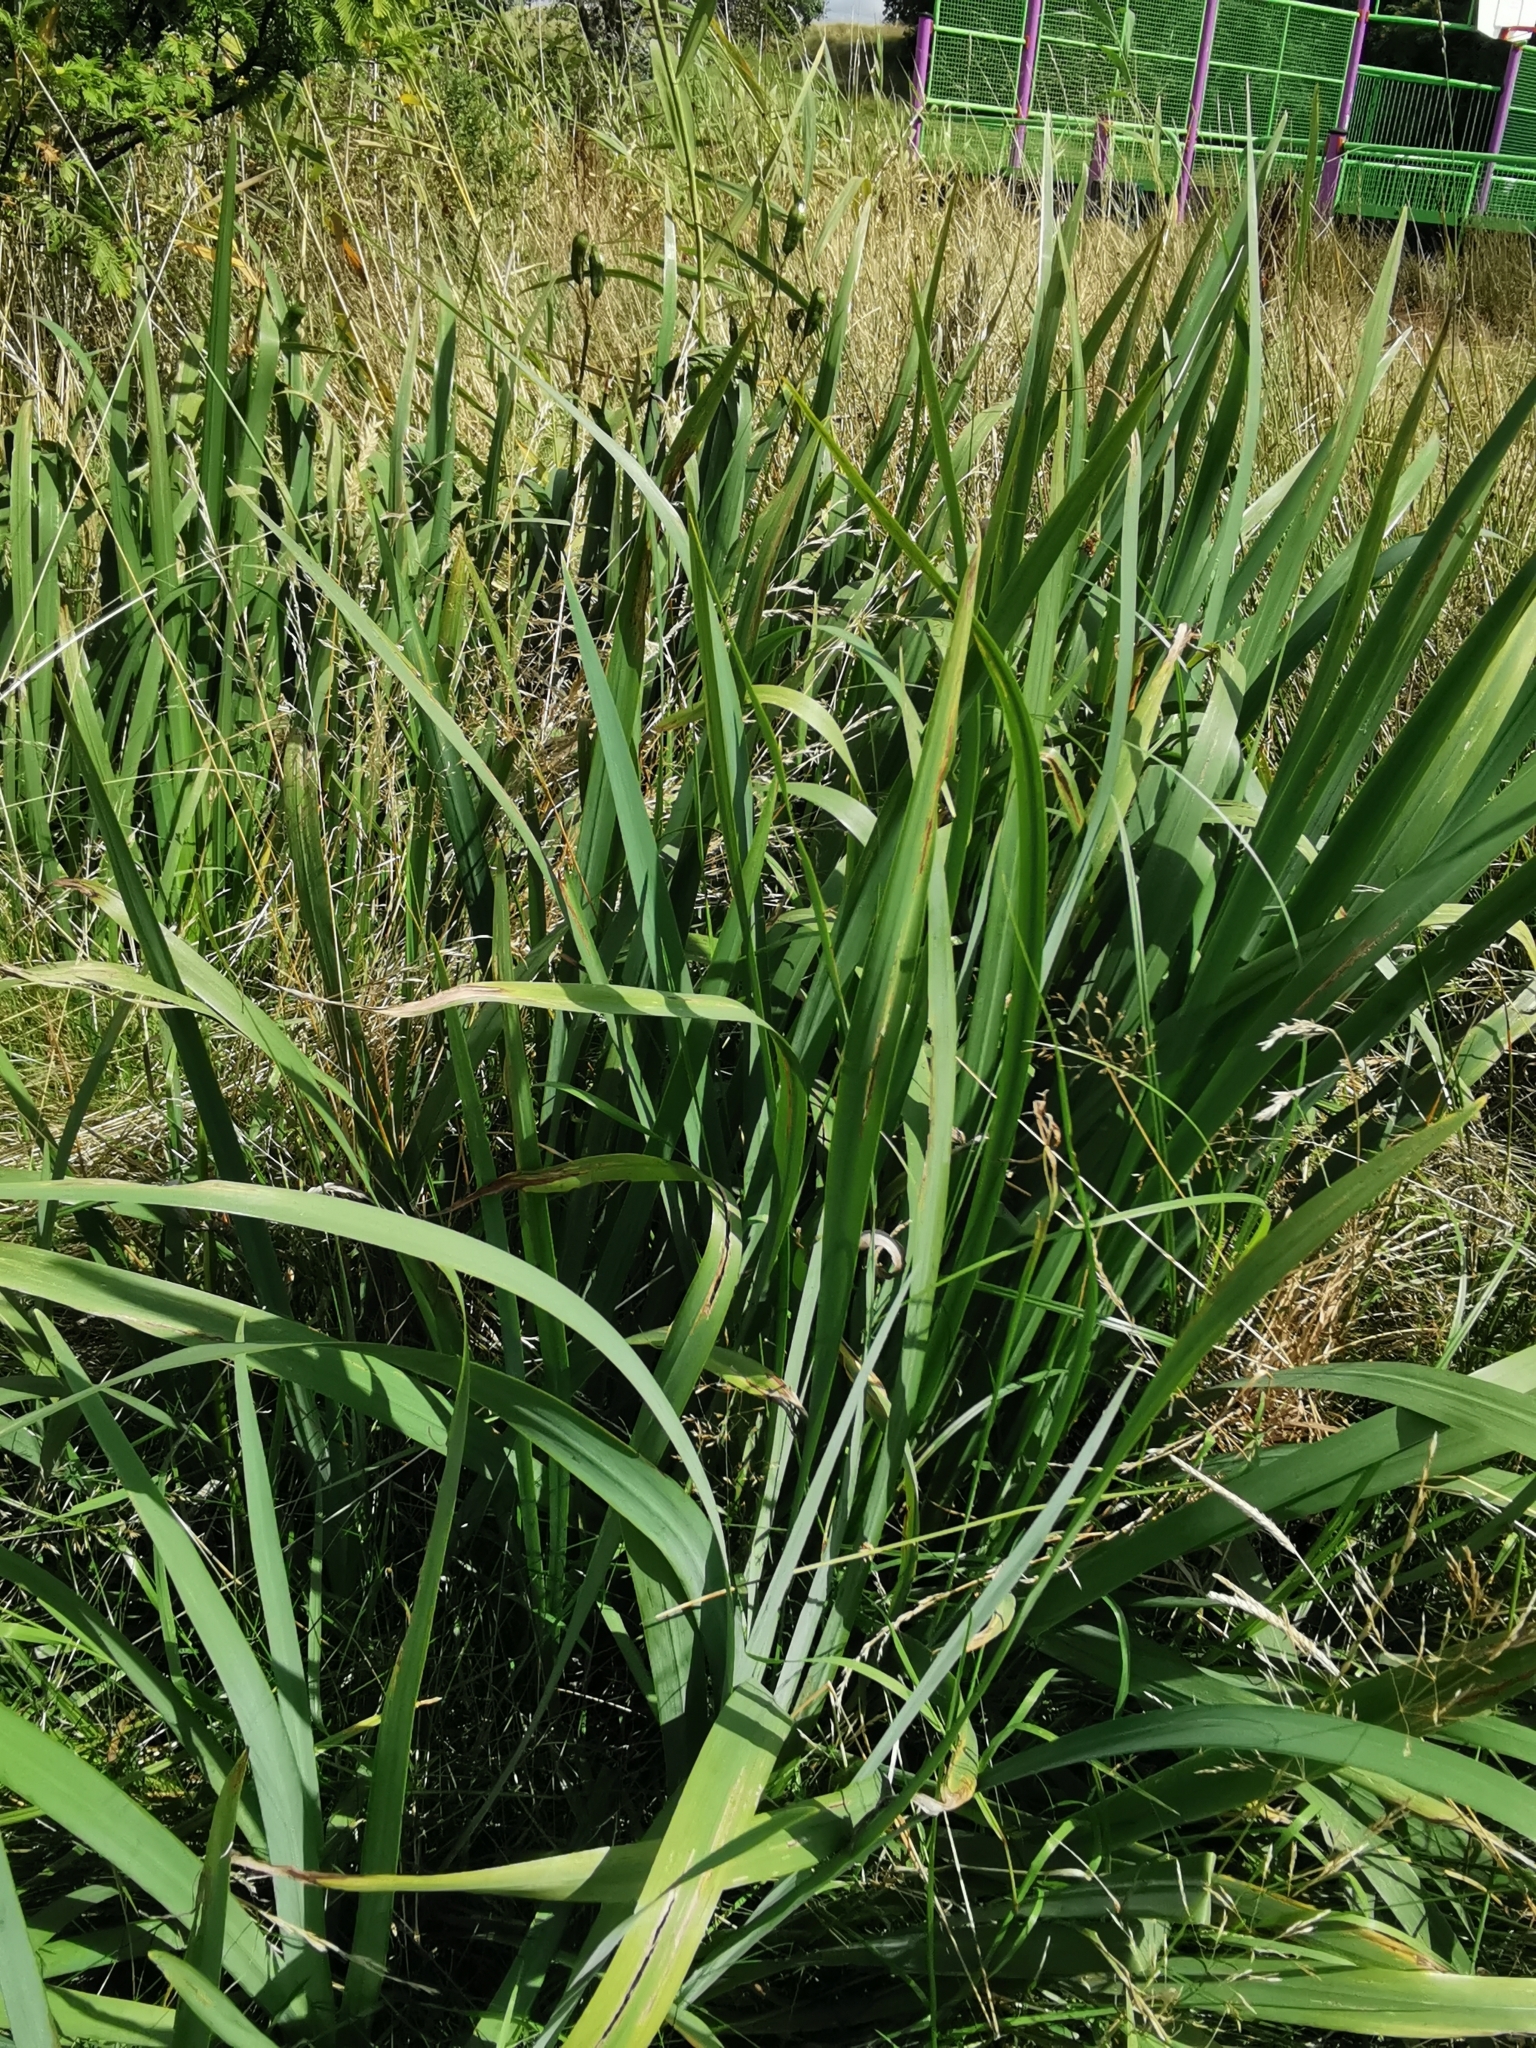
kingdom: Plantae
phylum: Tracheophyta
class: Liliopsida
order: Asparagales
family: Iridaceae
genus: Iris
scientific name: Iris pseudacorus
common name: Yellow flag
